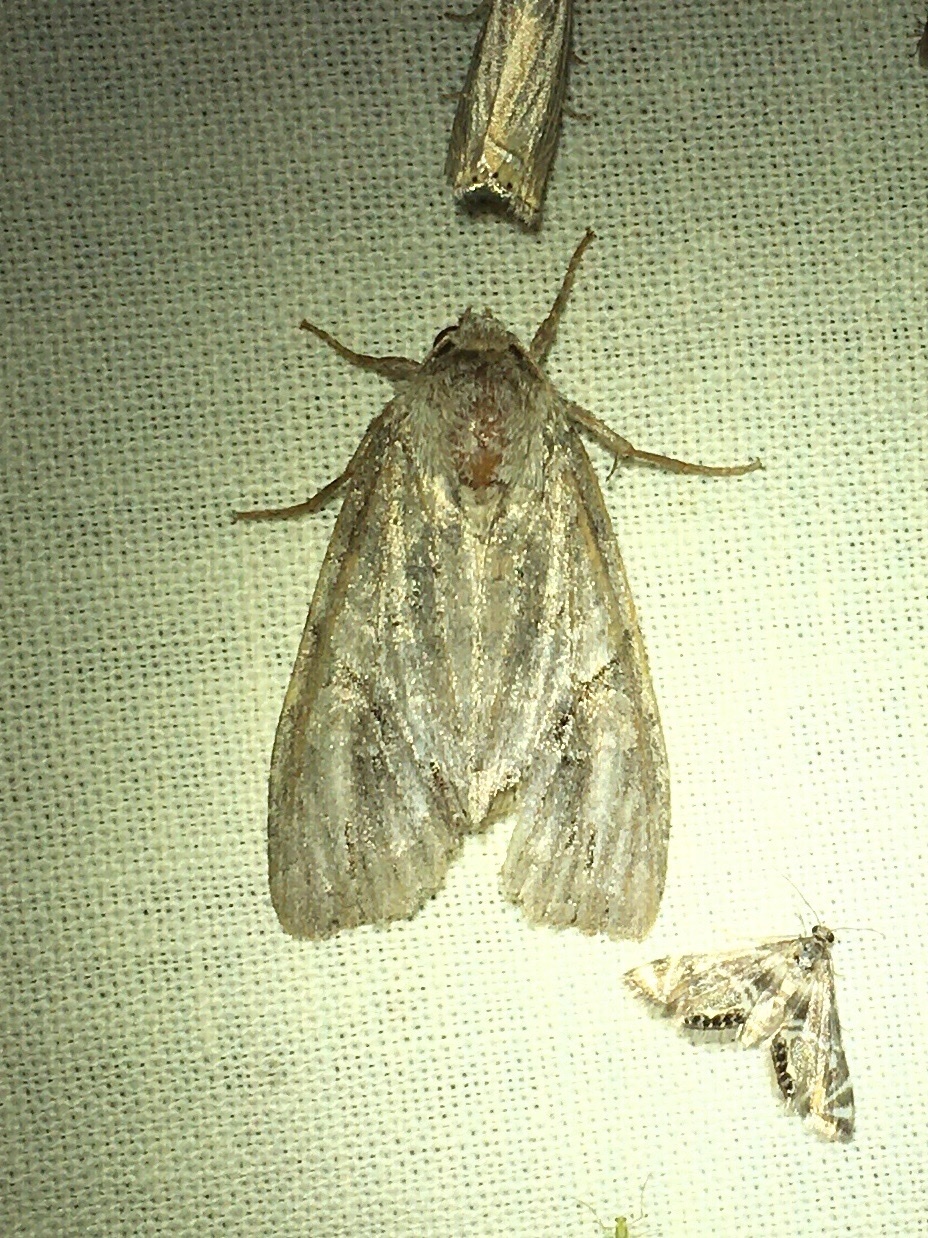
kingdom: Animalia
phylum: Arthropoda
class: Insecta
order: Lepidoptera
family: Noctuidae
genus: Achatia
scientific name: Achatia latex
